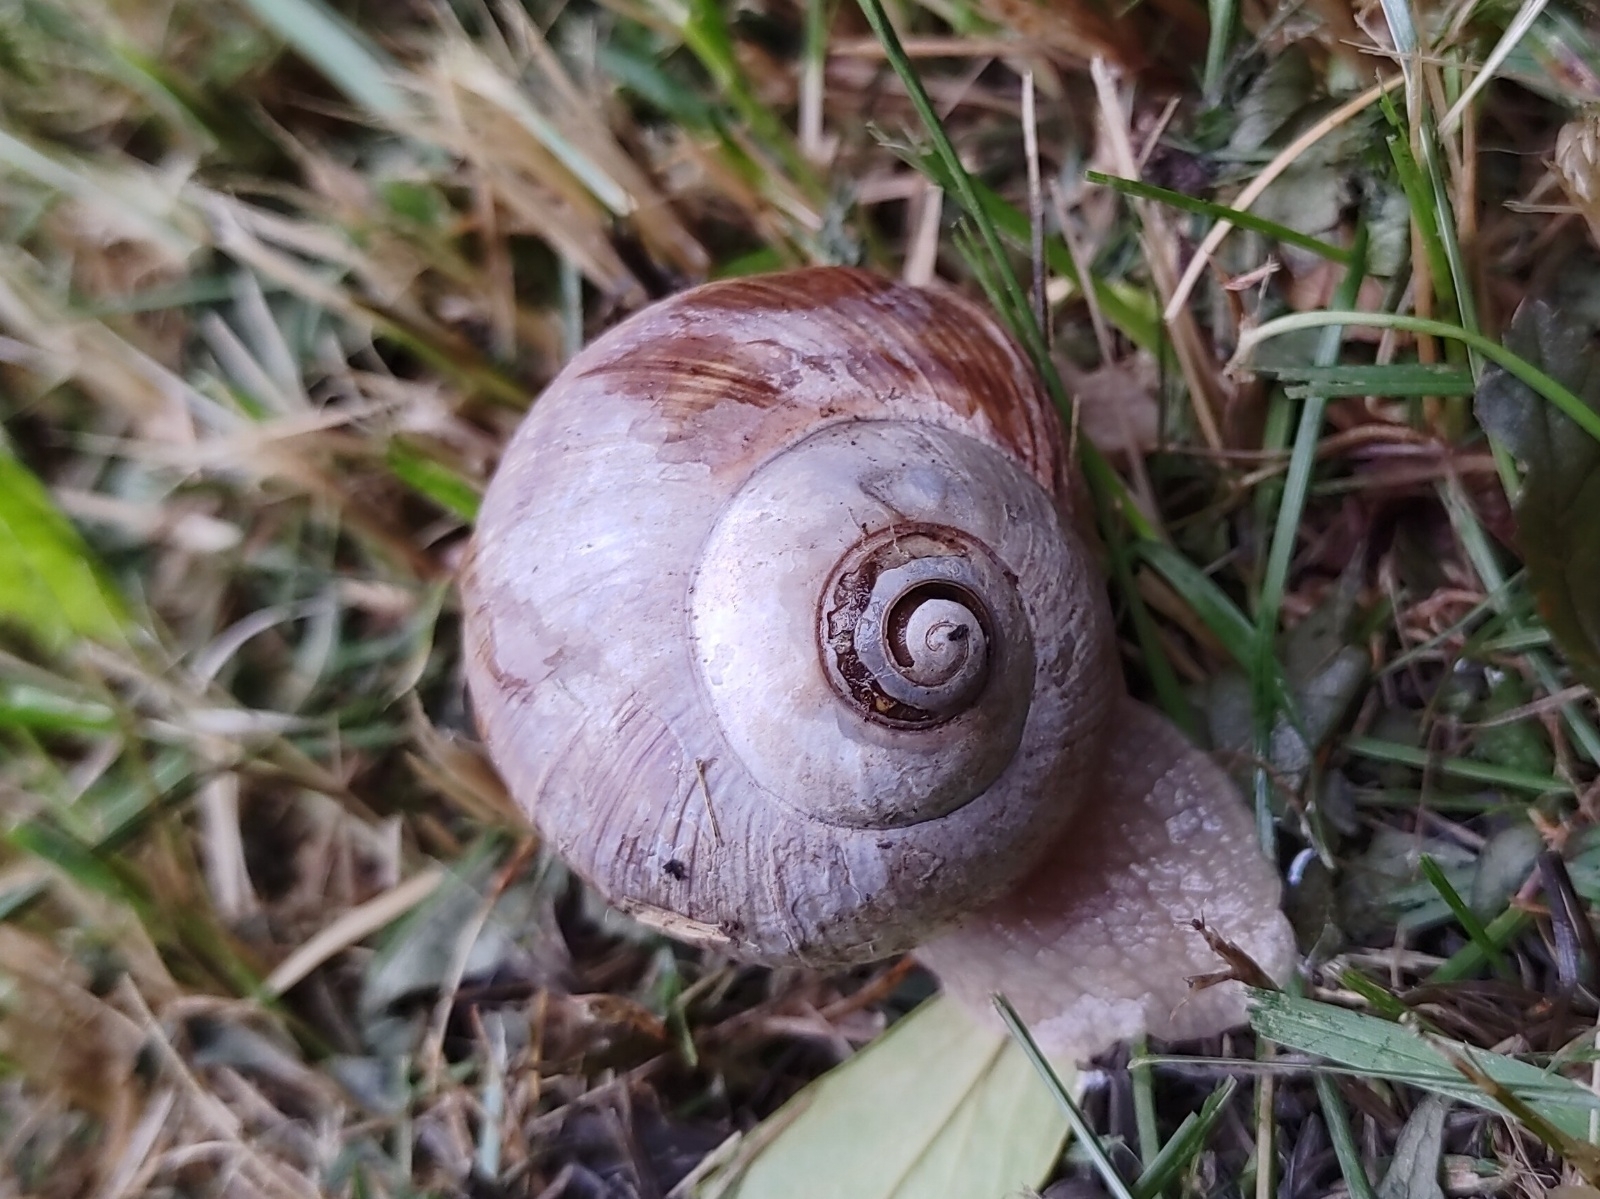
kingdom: Animalia
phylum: Mollusca
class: Gastropoda
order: Stylommatophora
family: Helicidae
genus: Helix
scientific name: Helix pomatia
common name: Roman snail
